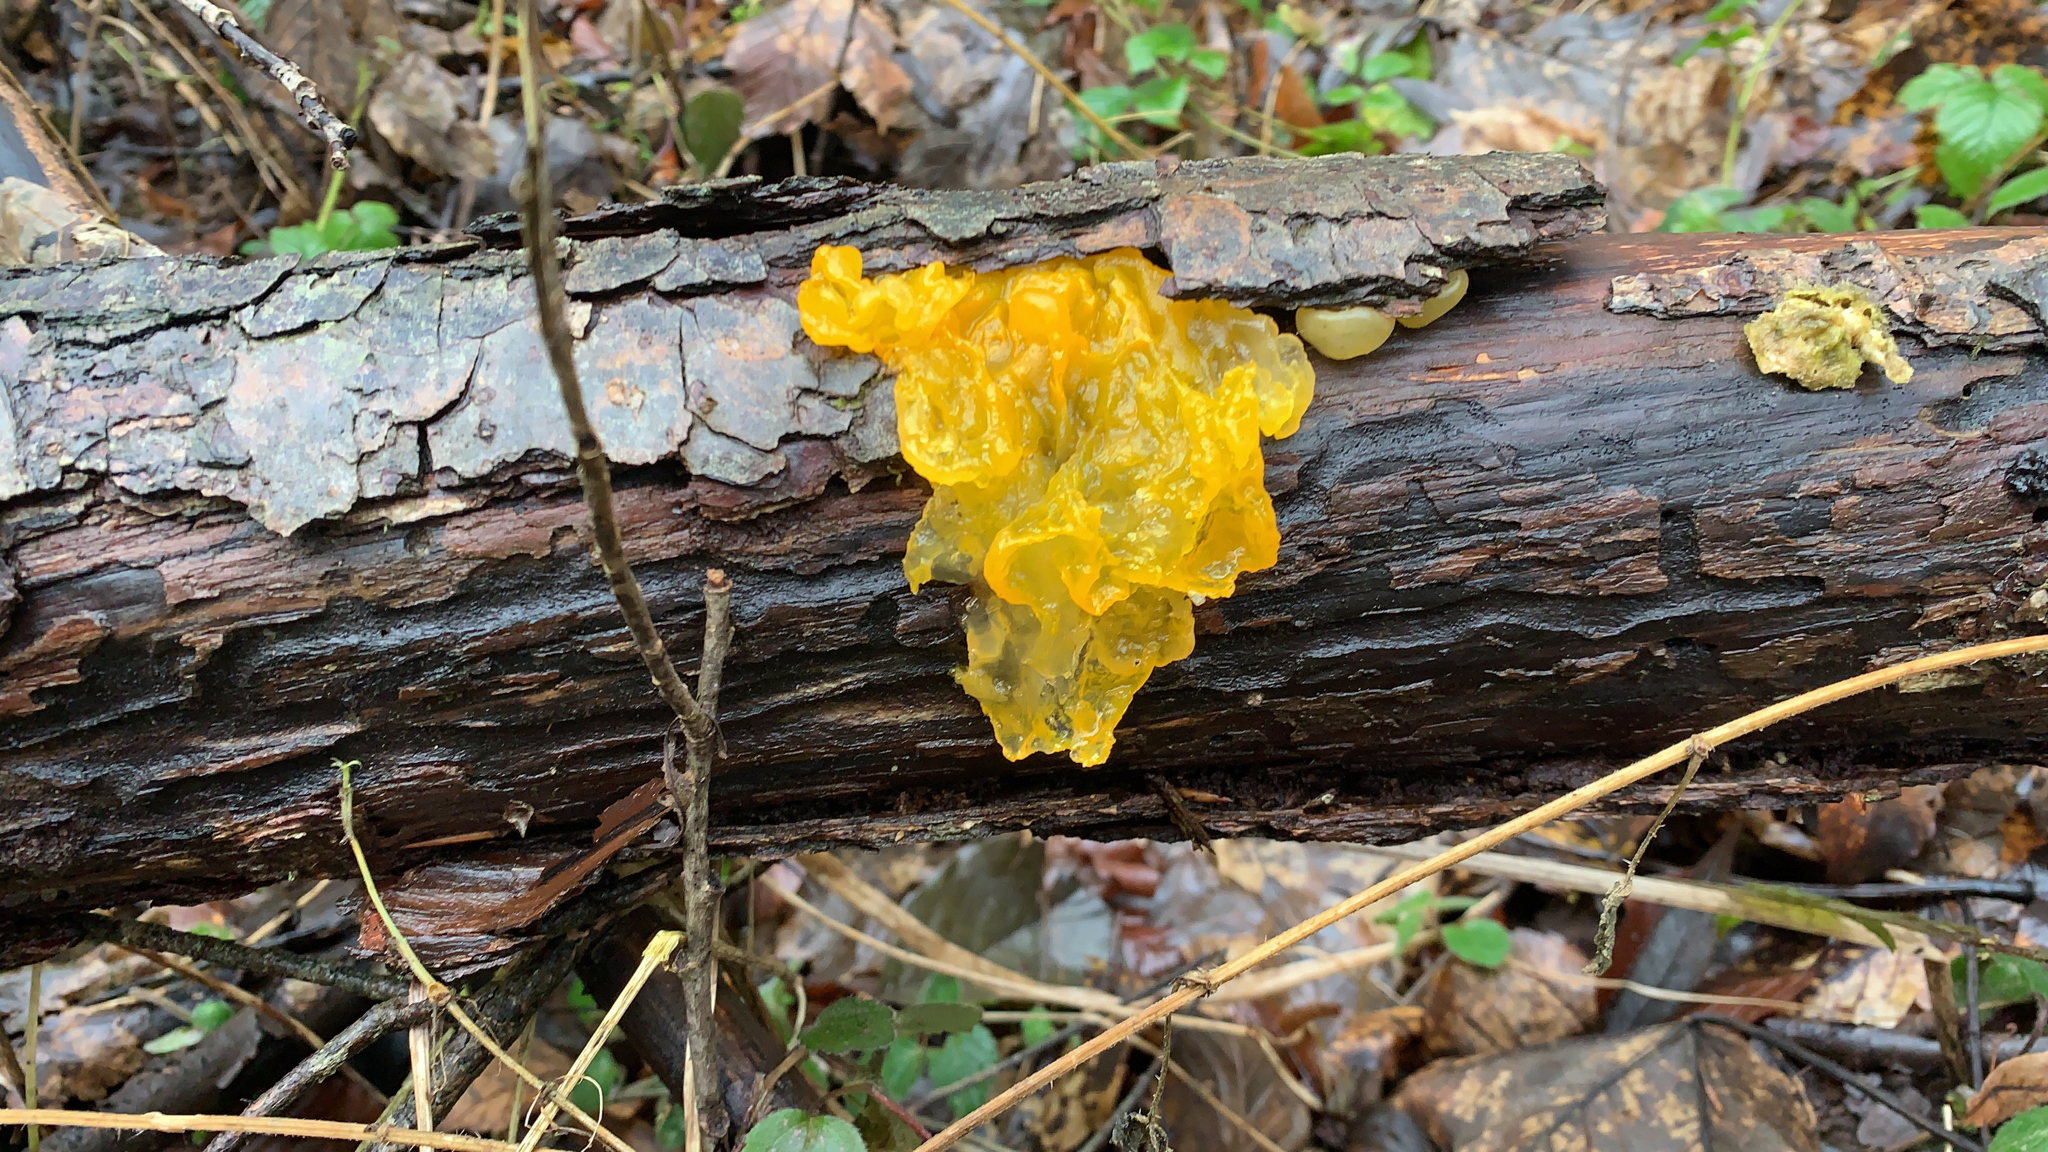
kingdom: Fungi
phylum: Basidiomycota
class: Tremellomycetes
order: Tremellales
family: Tremellaceae
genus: Tremella
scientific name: Tremella mesenterica
